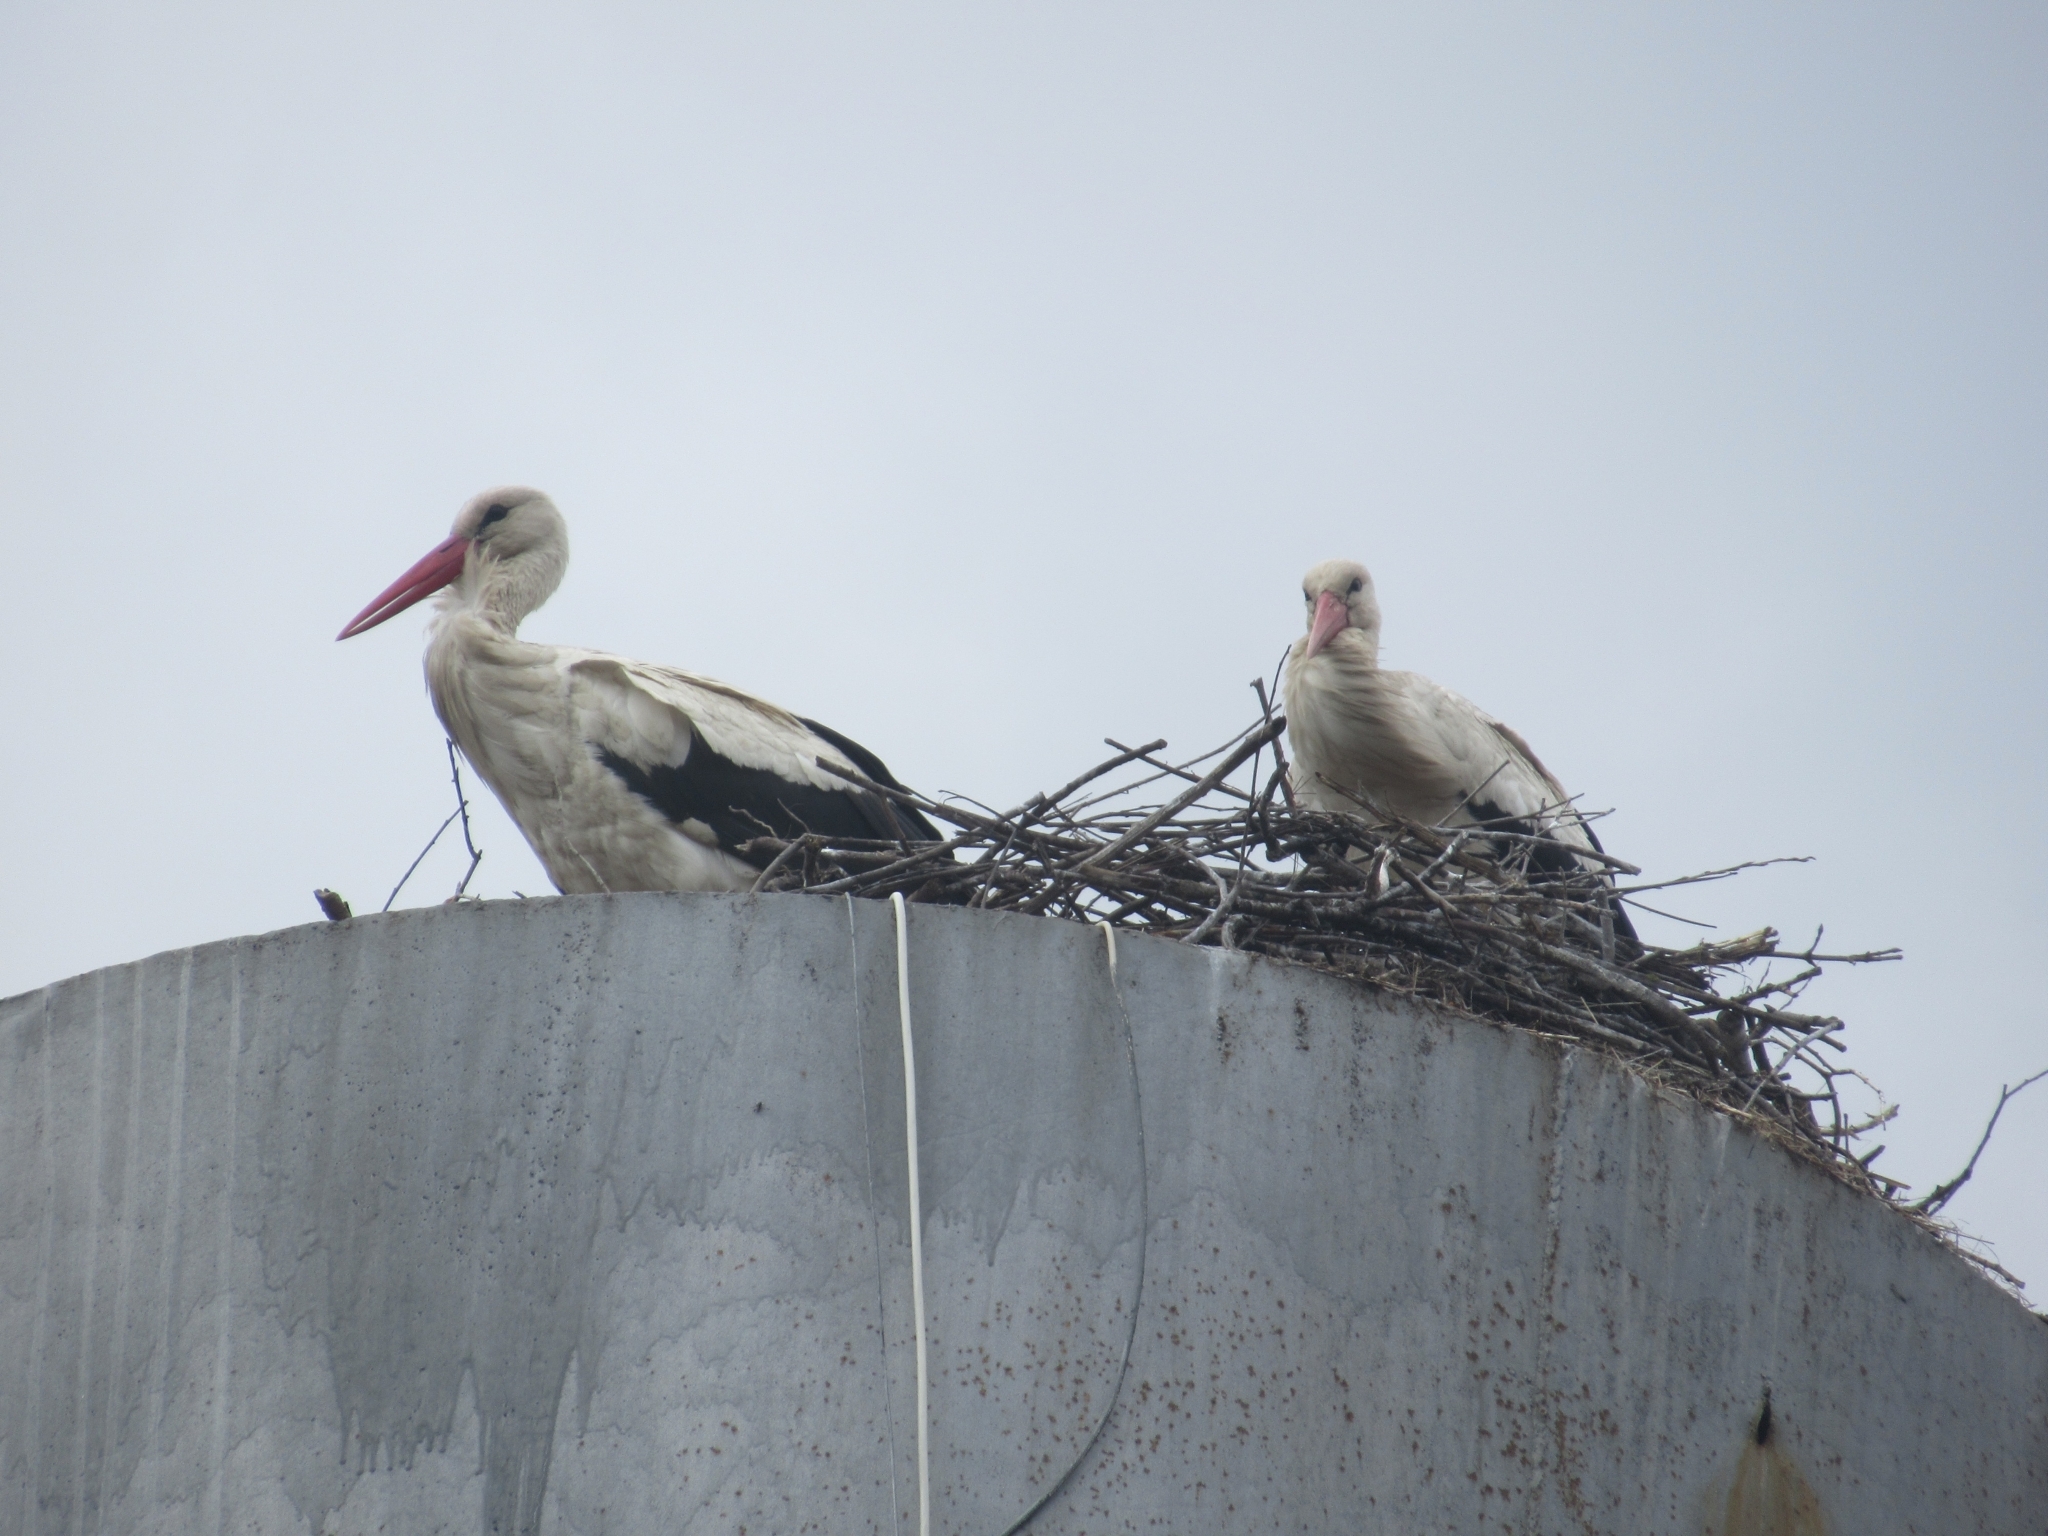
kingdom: Animalia
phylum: Chordata
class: Aves
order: Ciconiiformes
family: Ciconiidae
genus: Ciconia
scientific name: Ciconia ciconia
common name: White stork
